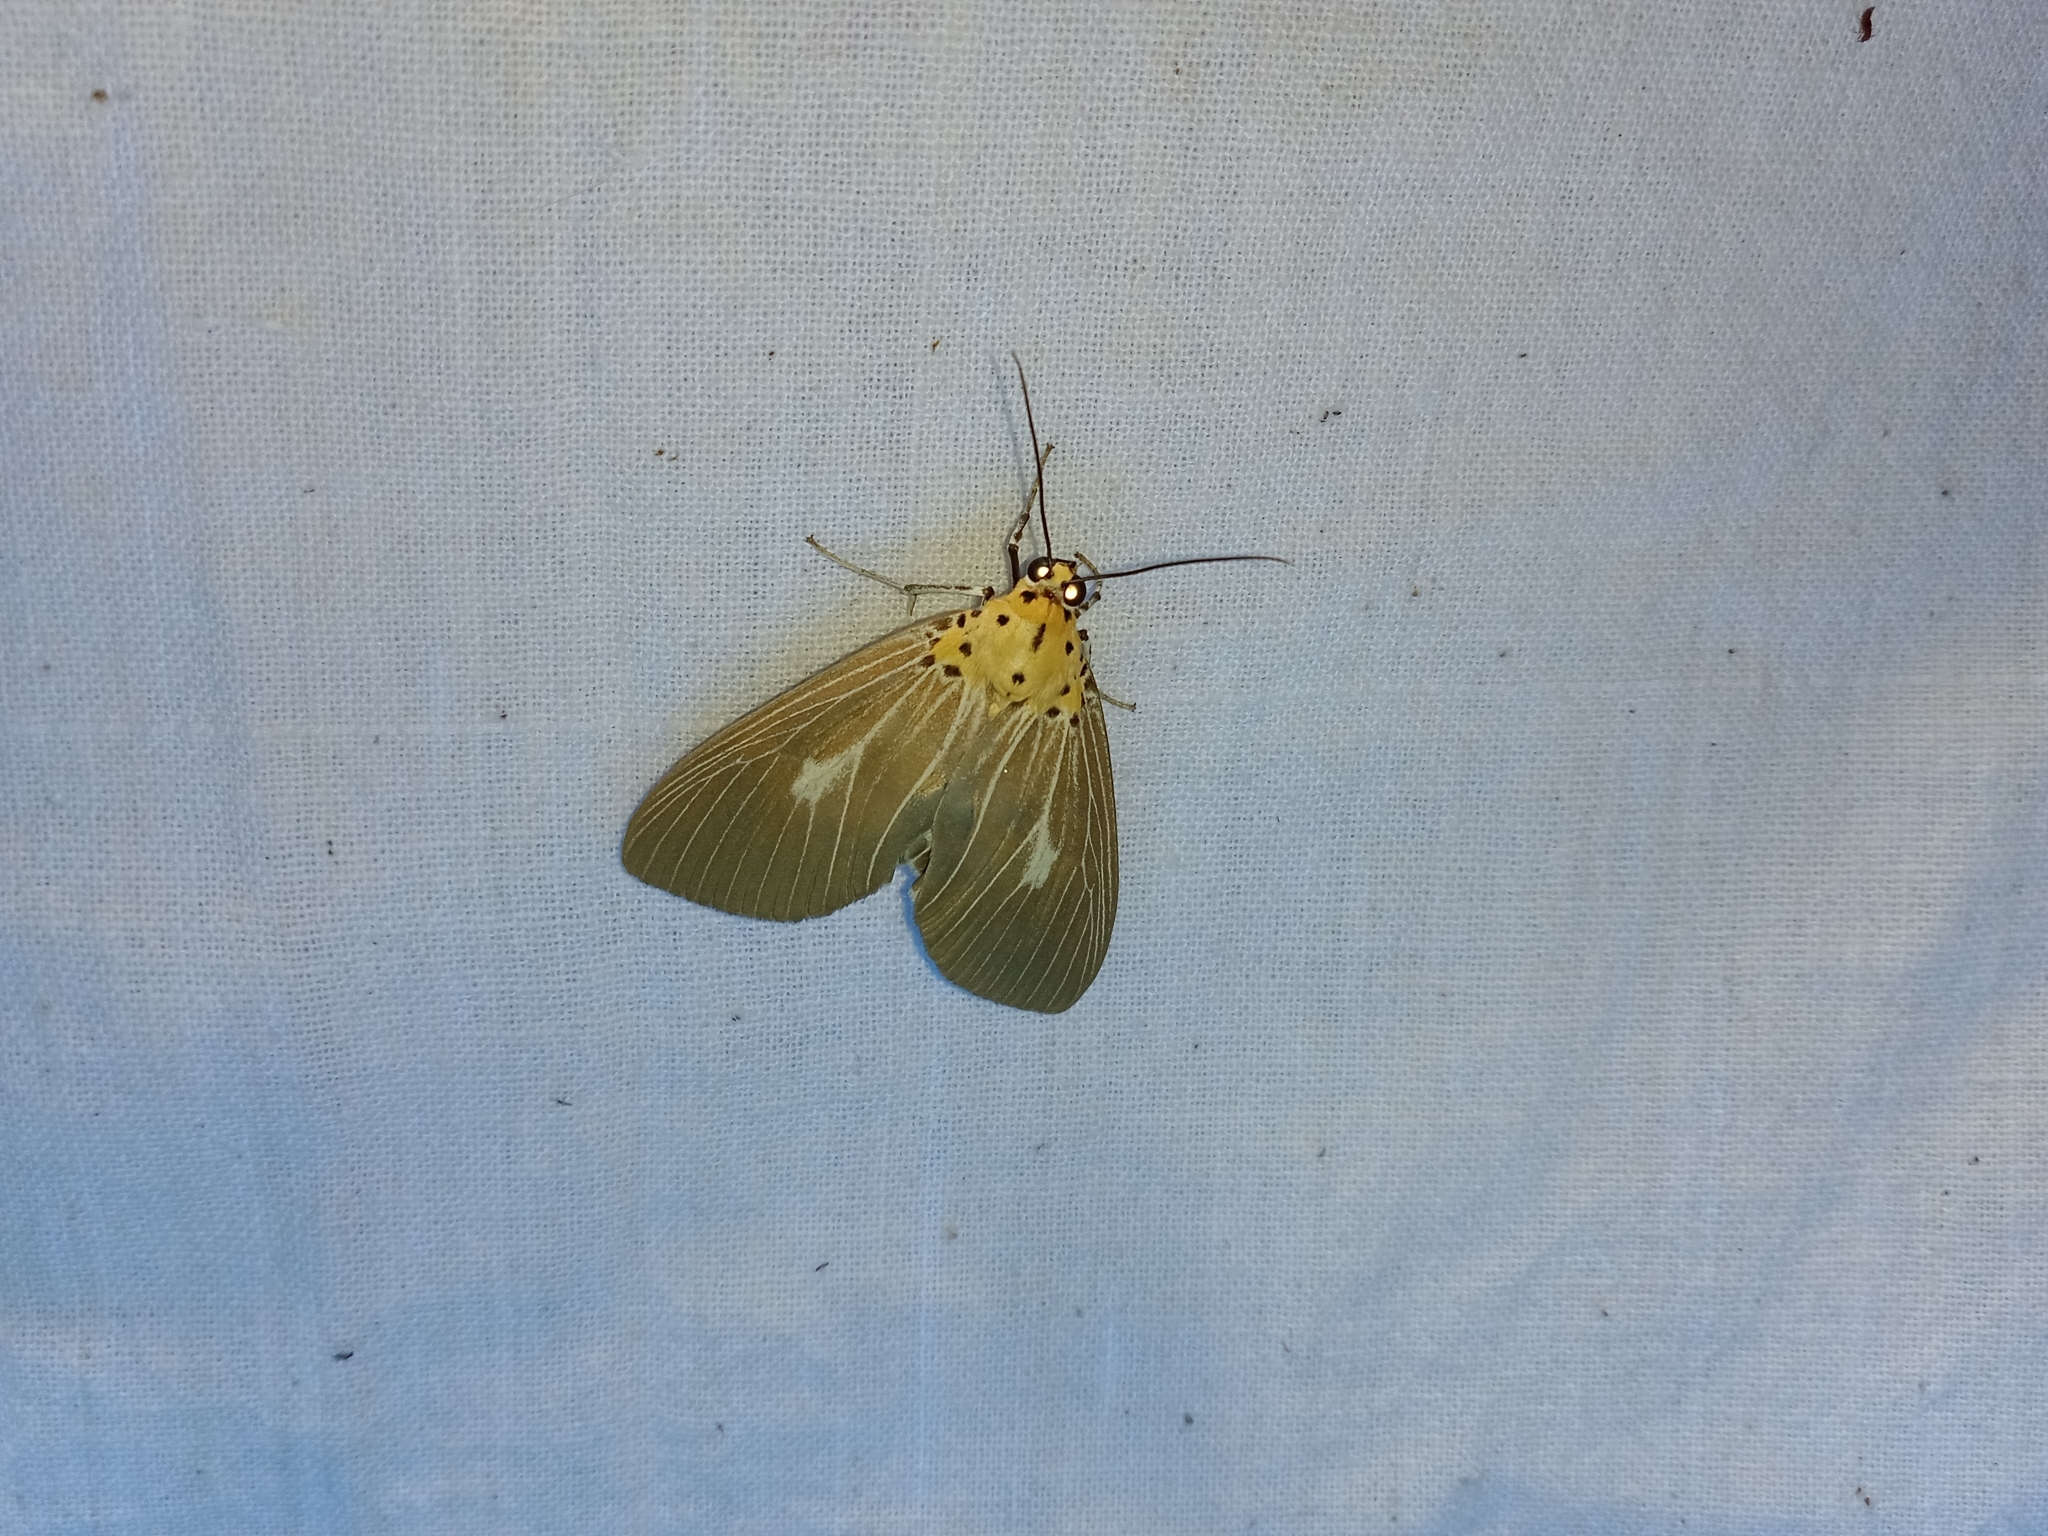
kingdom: Animalia
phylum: Arthropoda
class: Insecta
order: Lepidoptera
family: Erebidae
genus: Asota
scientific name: Asota canaraica
